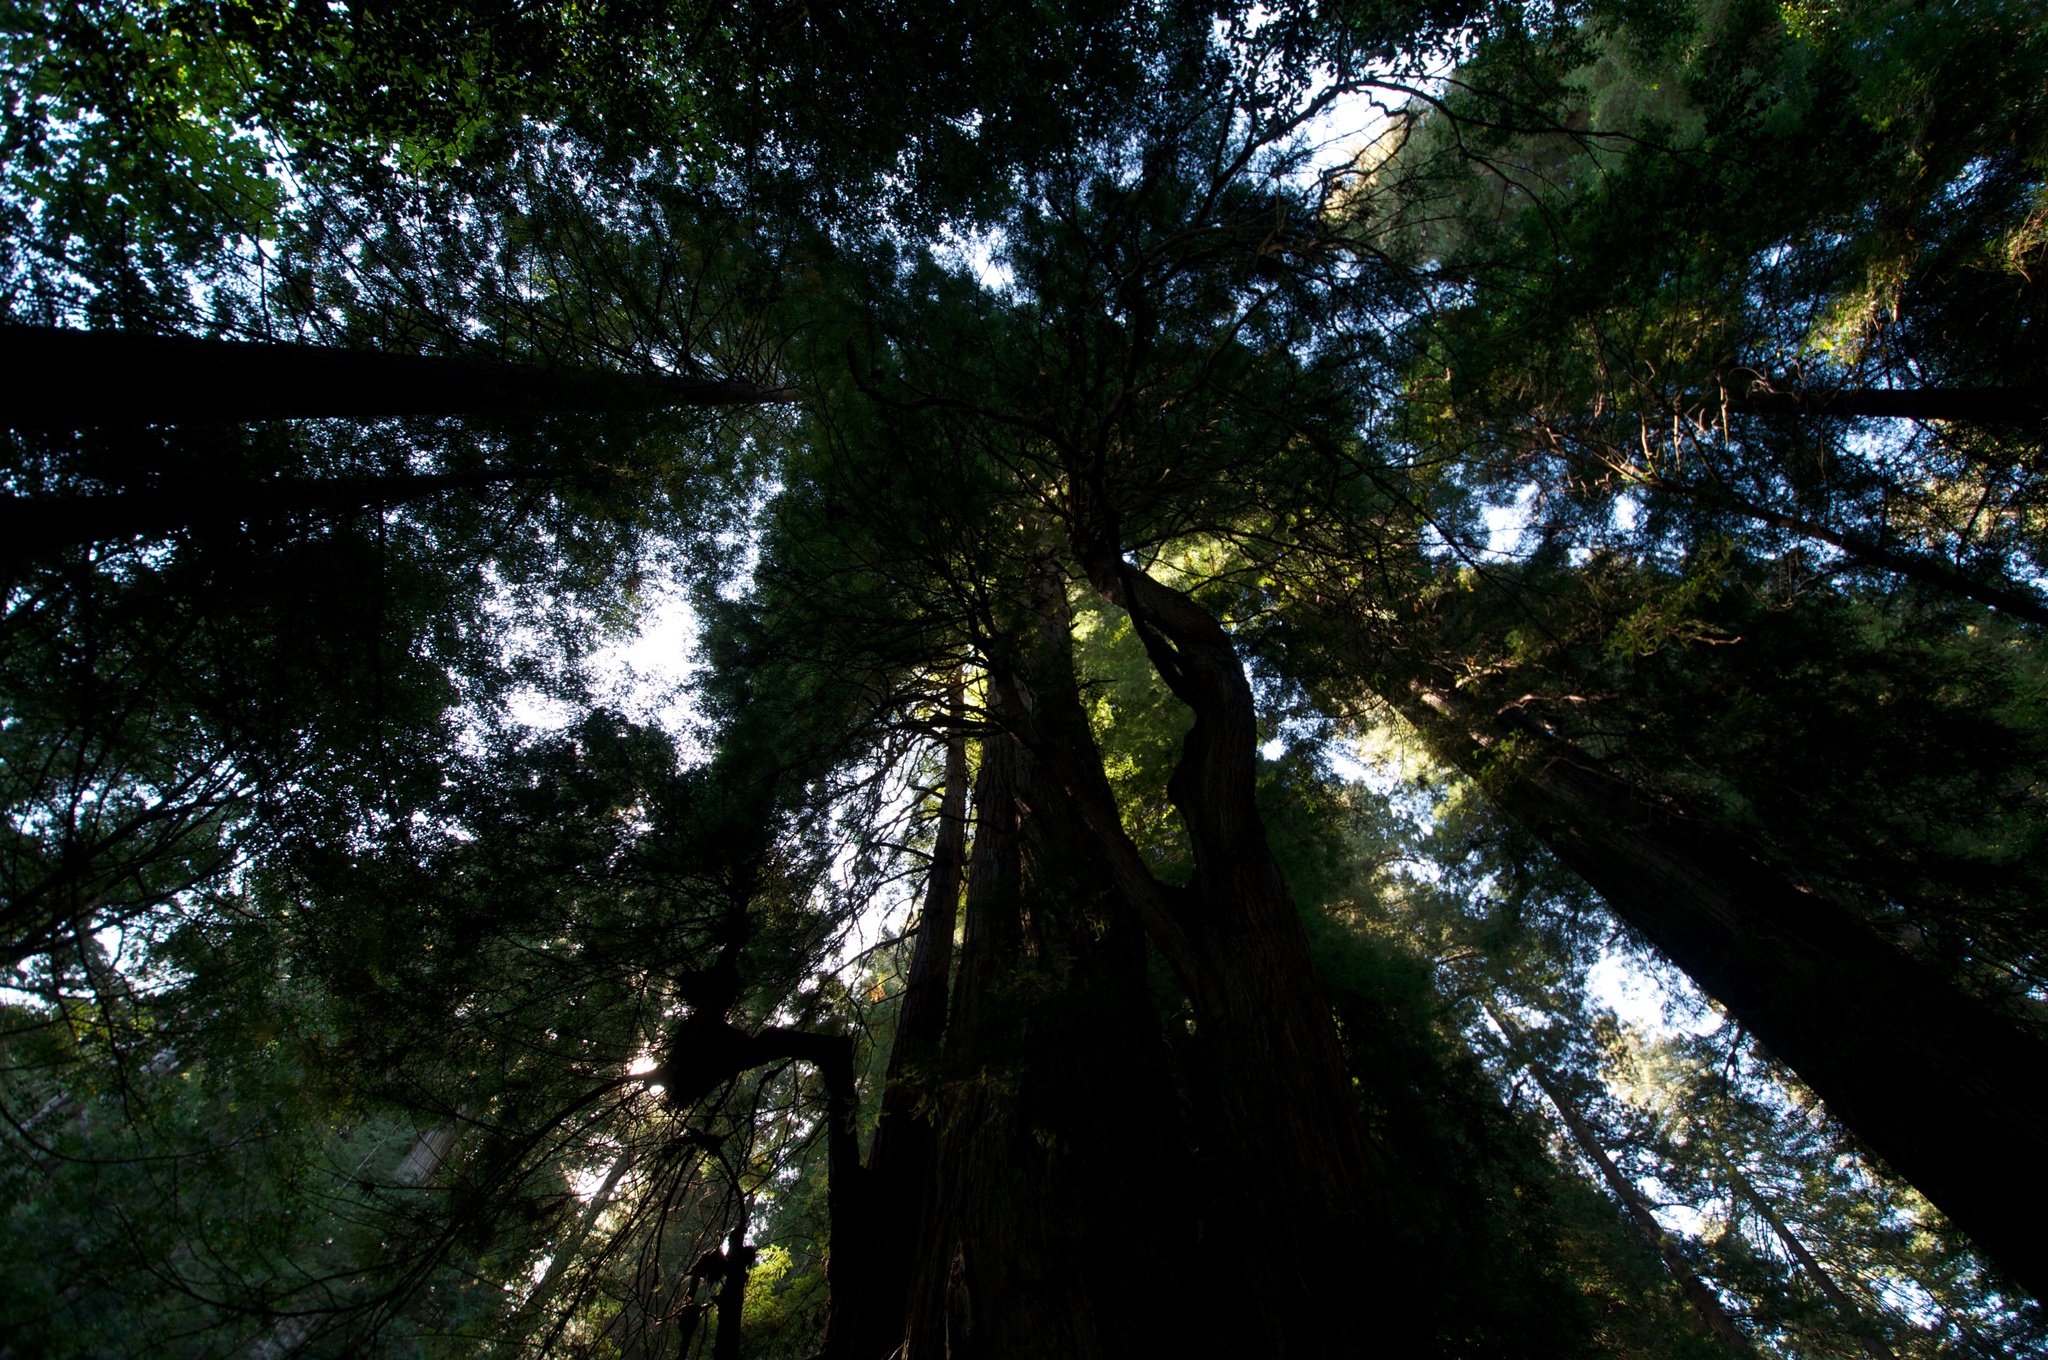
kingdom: Plantae
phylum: Tracheophyta
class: Pinopsida
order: Pinales
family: Cupressaceae
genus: Sequoia
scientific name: Sequoia sempervirens
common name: Coast redwood
